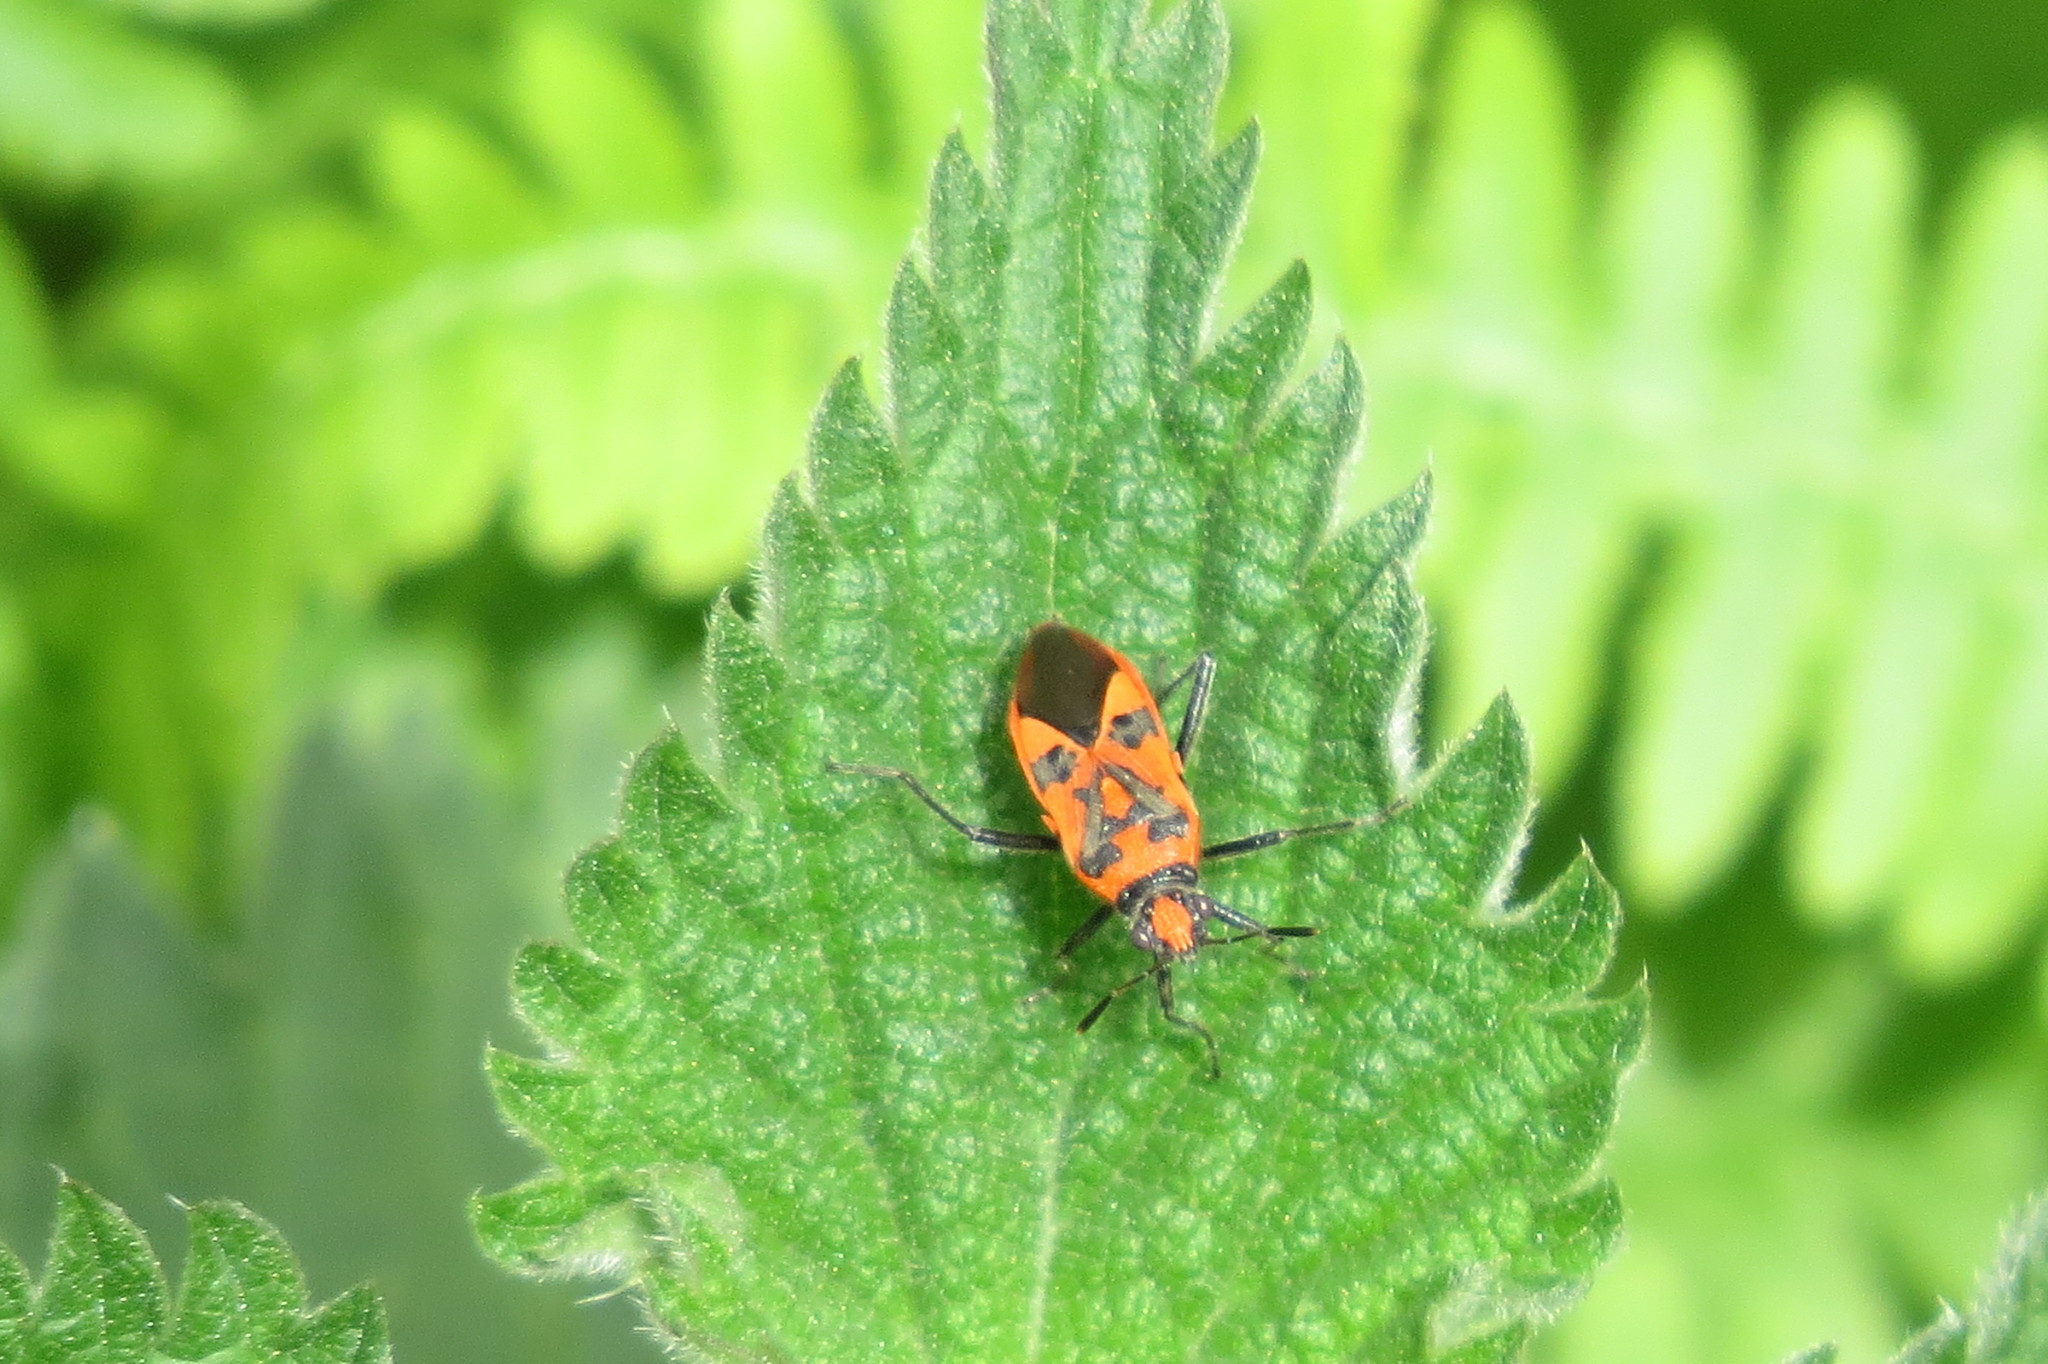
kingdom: Animalia
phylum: Arthropoda
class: Insecta
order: Hemiptera
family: Rhopalidae
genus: Corizus
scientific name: Corizus hyoscyami
